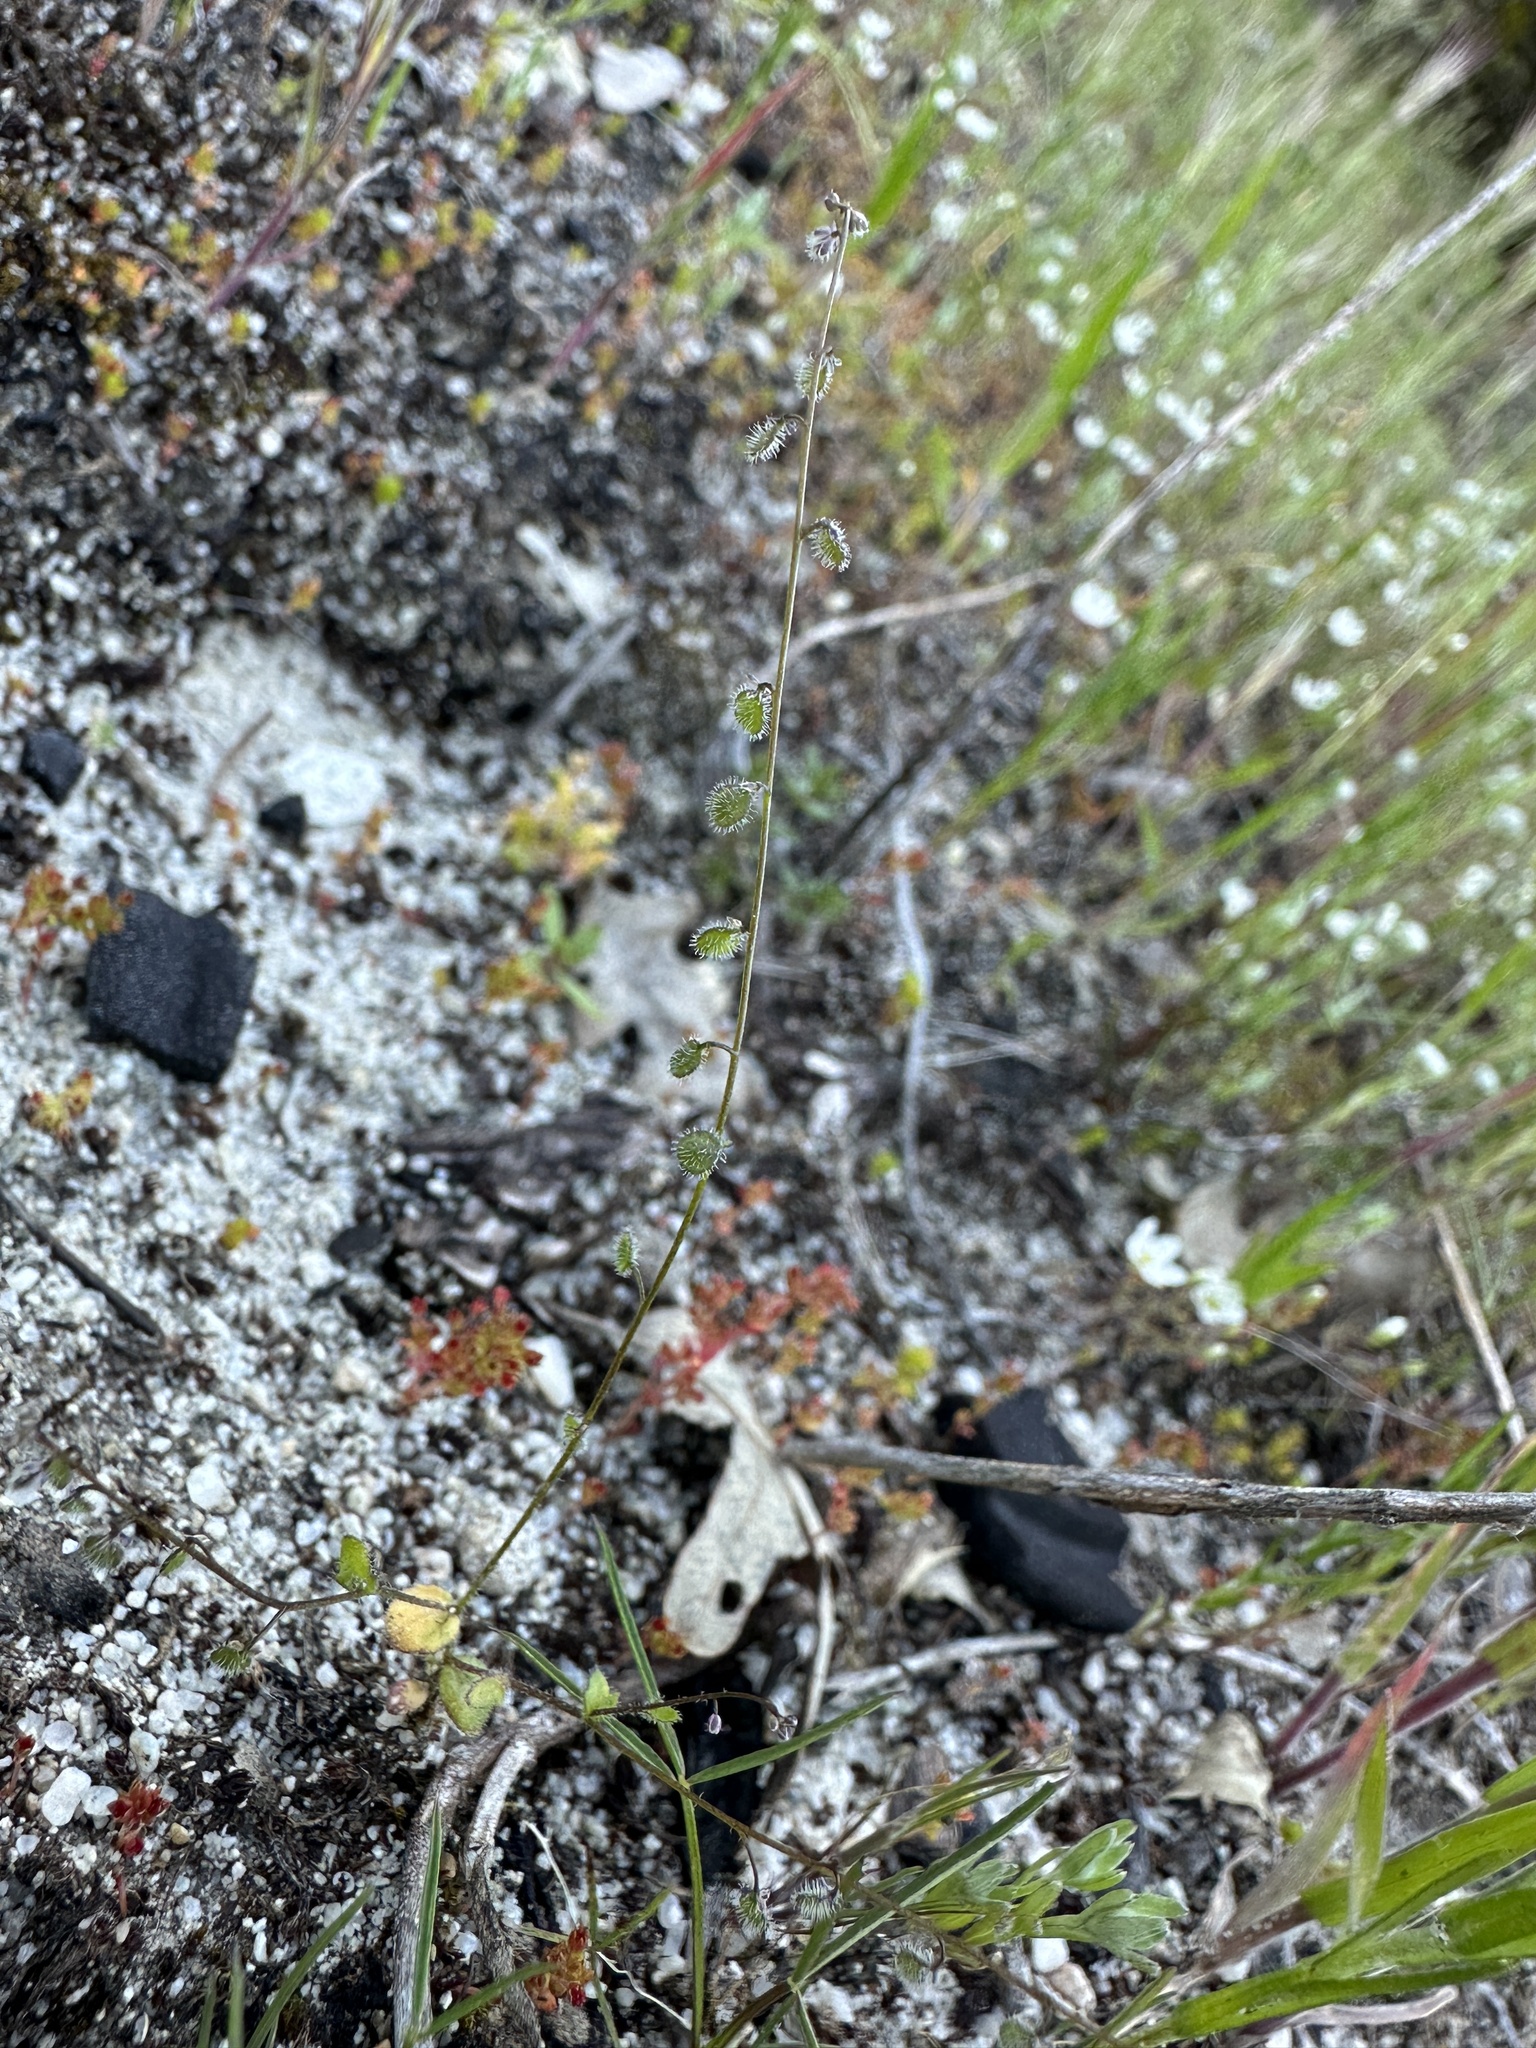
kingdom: Plantae
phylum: Tracheophyta
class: Magnoliopsida
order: Brassicales
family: Brassicaceae
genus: Athysanus
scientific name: Athysanus pusillus
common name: Common sandweed
